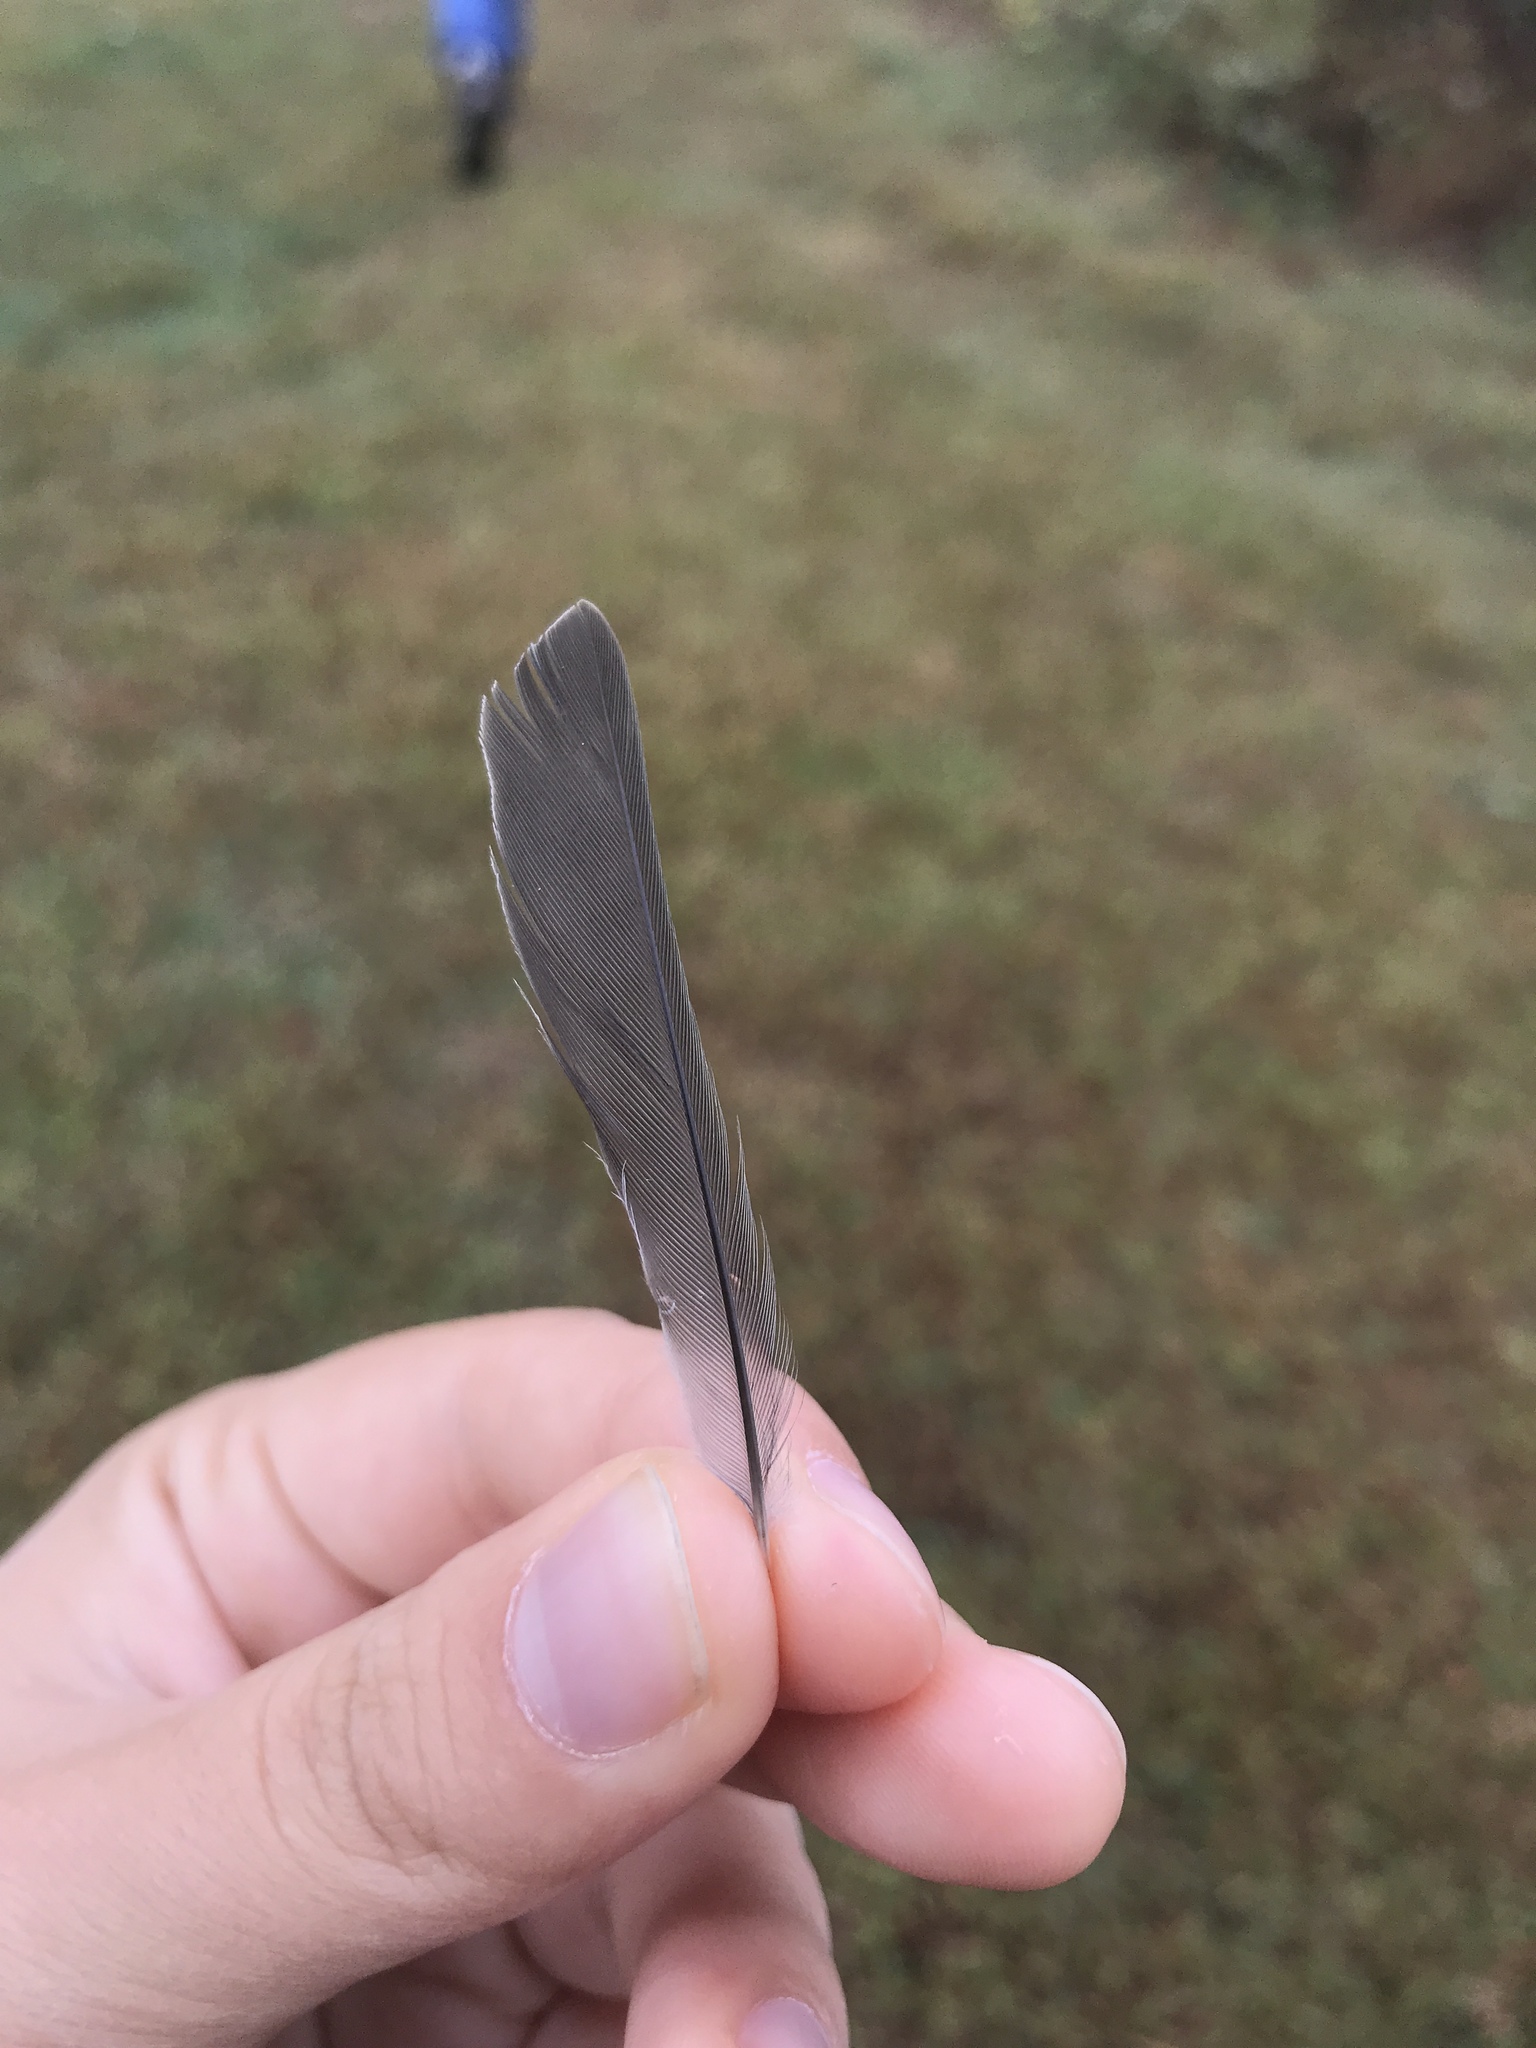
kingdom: Animalia
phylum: Chordata
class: Aves
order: Passeriformes
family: Cardinalidae
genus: Passerina
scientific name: Passerina cyanea
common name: Indigo bunting
